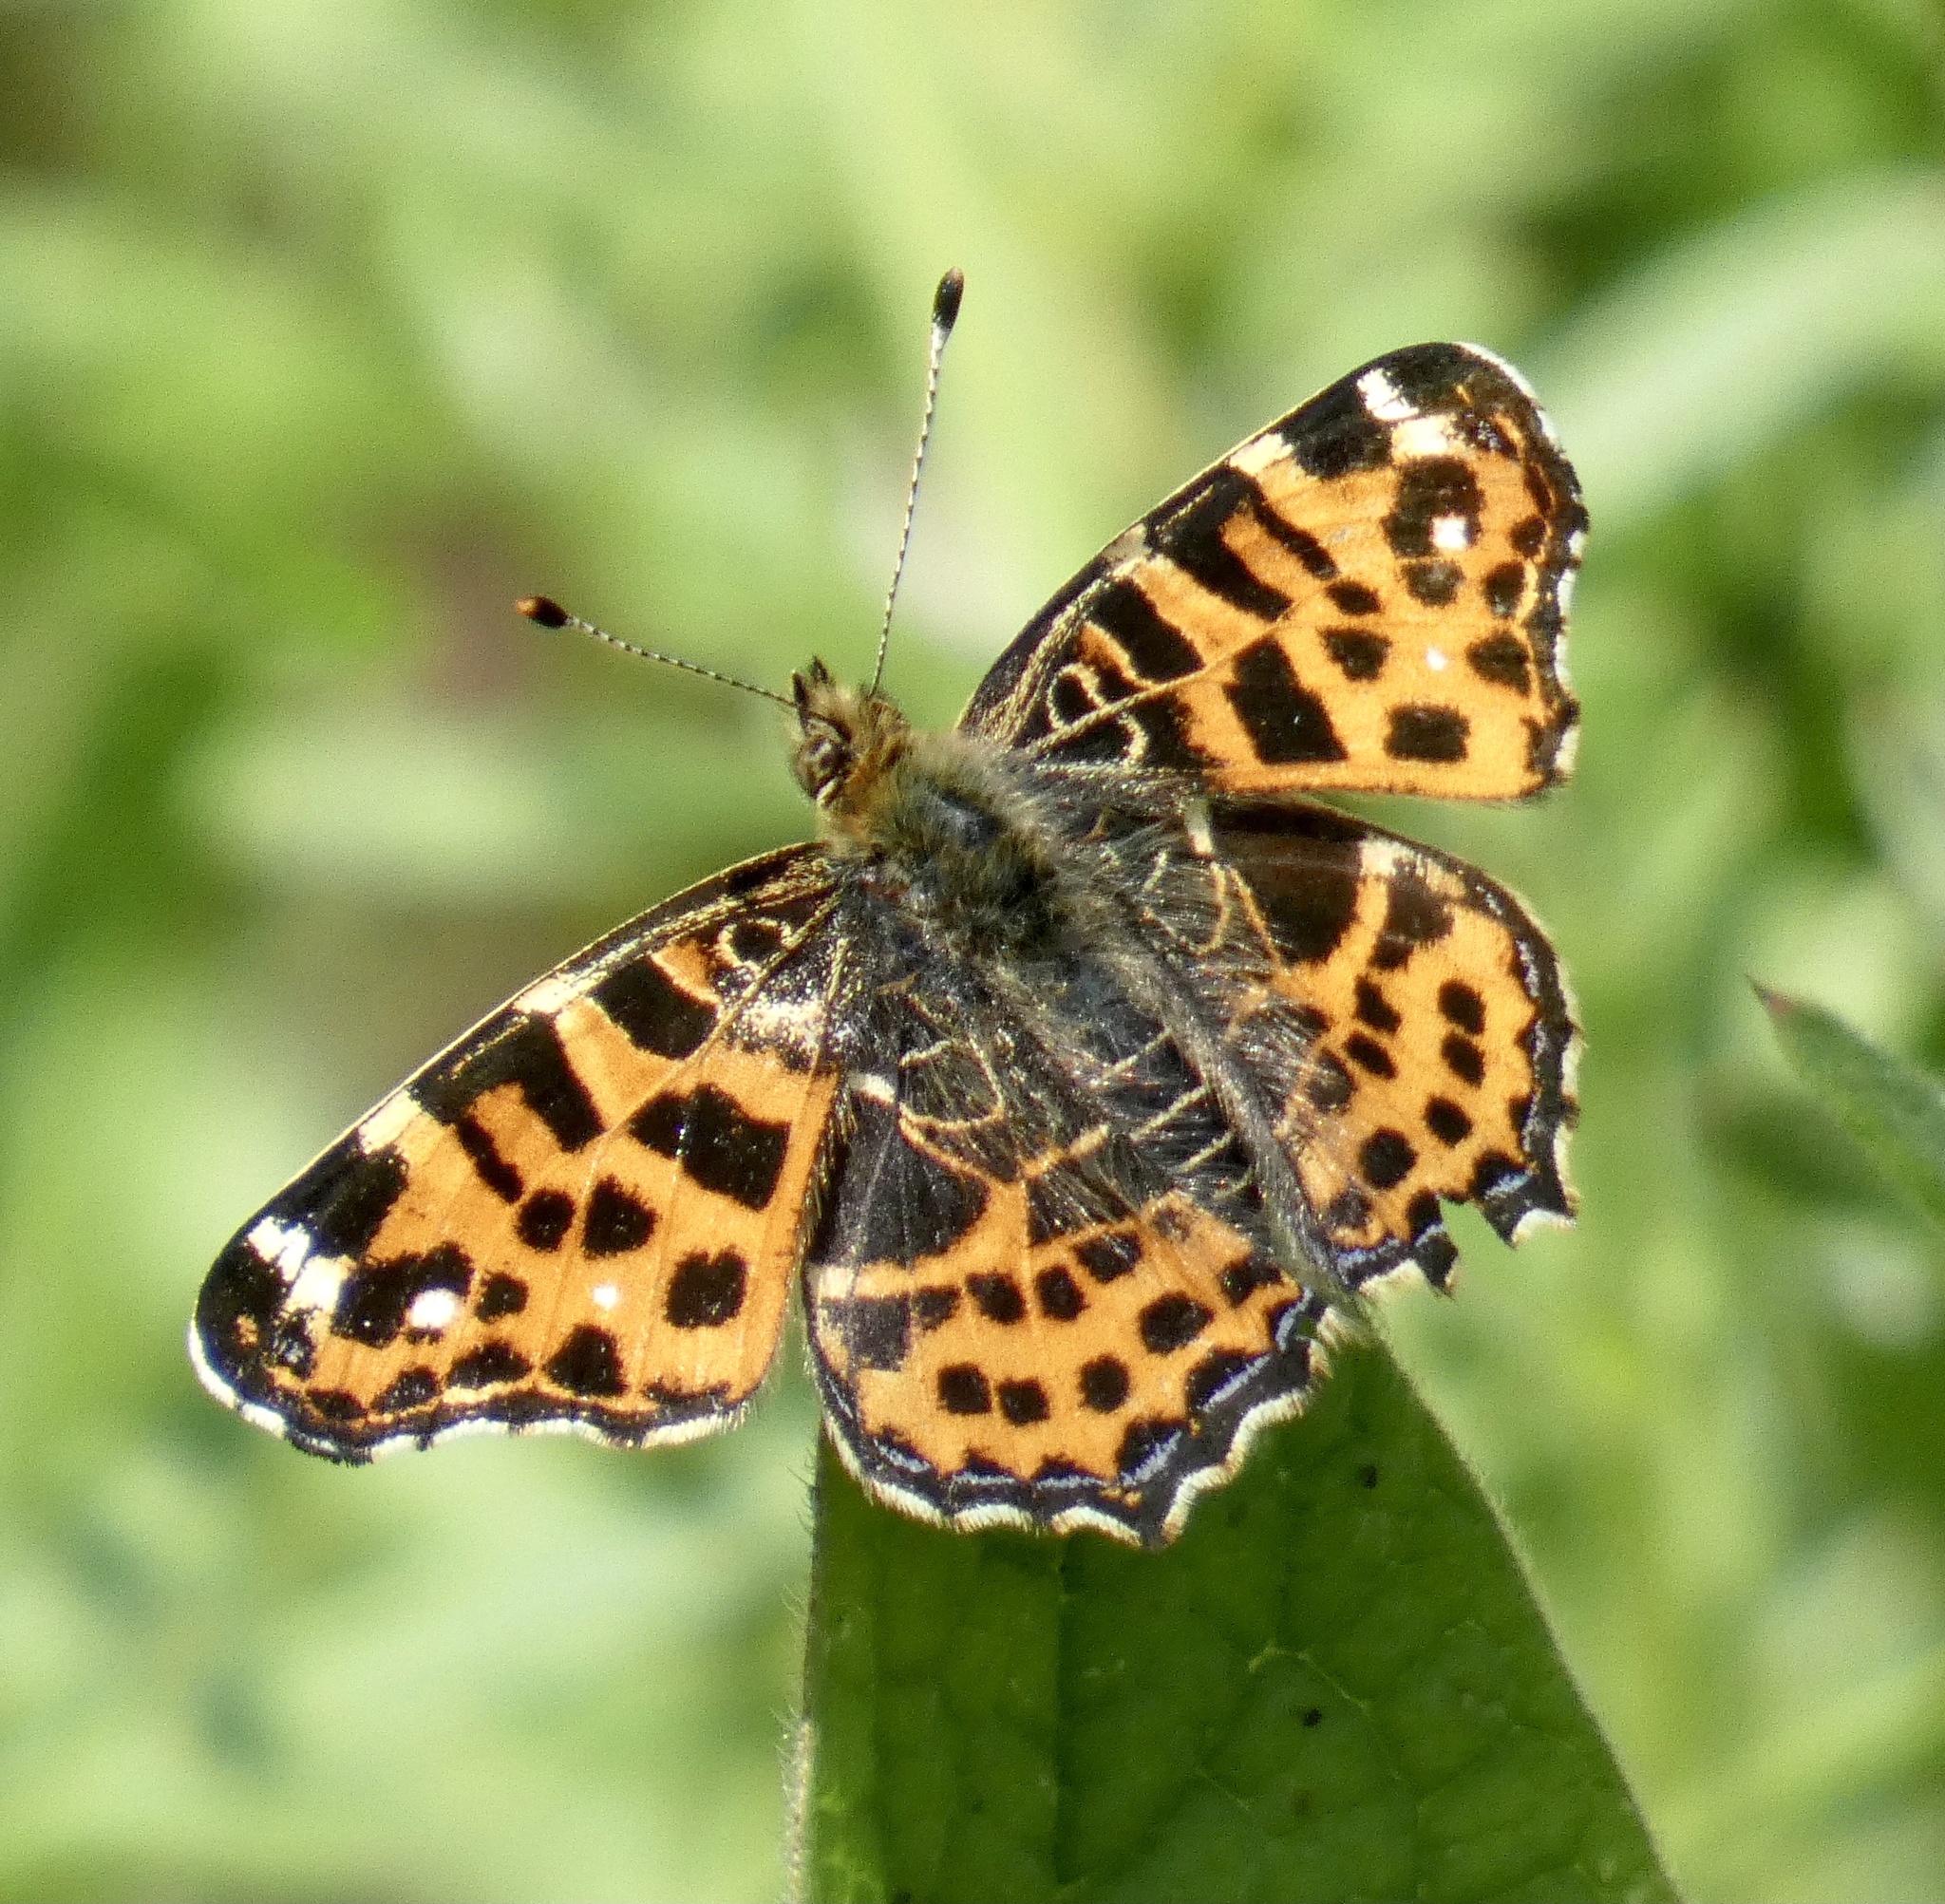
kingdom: Animalia
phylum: Arthropoda
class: Insecta
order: Lepidoptera
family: Nymphalidae
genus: Araschnia
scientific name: Araschnia levana
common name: Map butterfly
